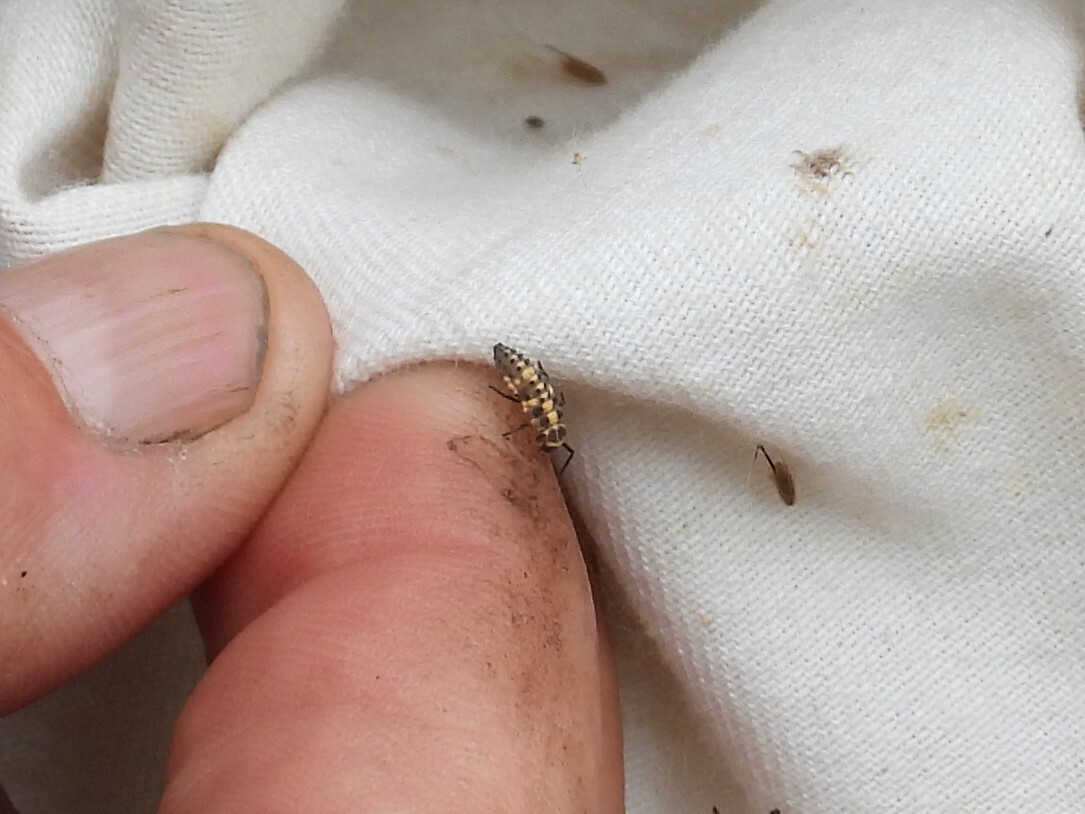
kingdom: Animalia
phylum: Arthropoda
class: Insecta
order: Coleoptera
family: Coccinellidae
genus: Cycloneda
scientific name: Cycloneda munda
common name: Polished lady beetle
